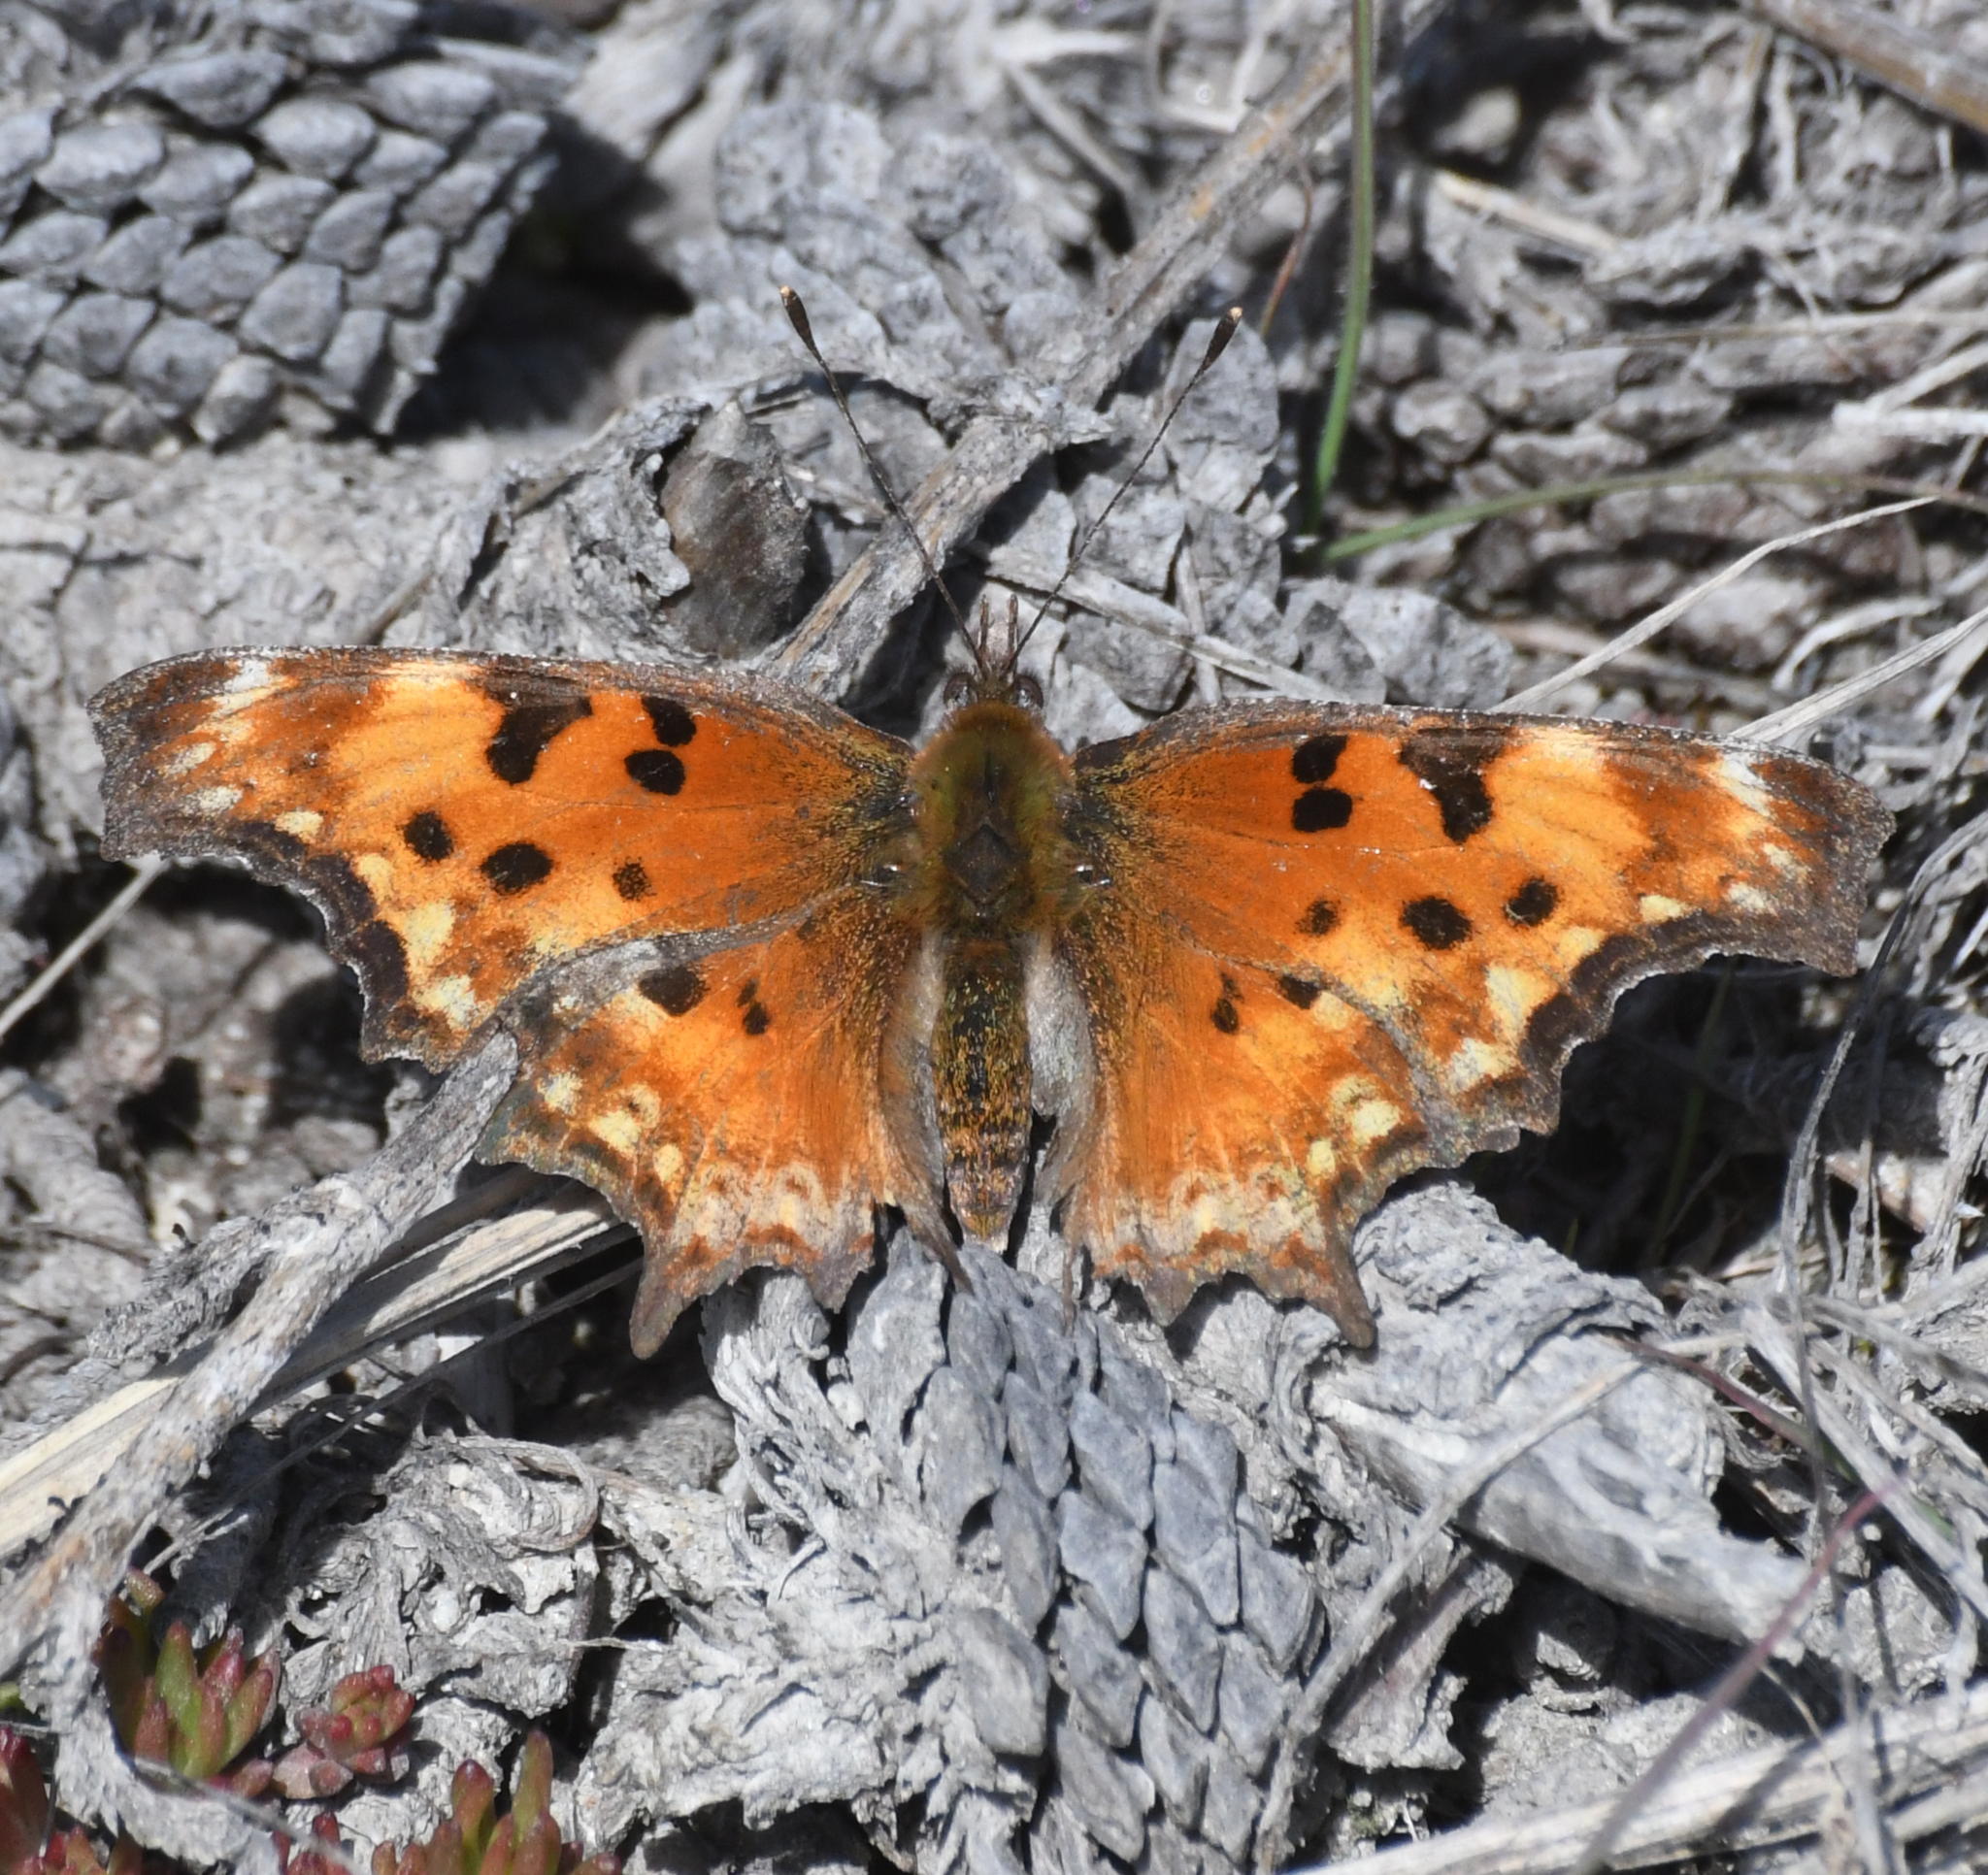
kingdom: Animalia
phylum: Arthropoda
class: Insecta
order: Lepidoptera
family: Nymphalidae
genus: Polygonia
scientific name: Polygonia gracilis
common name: Hoary comma
